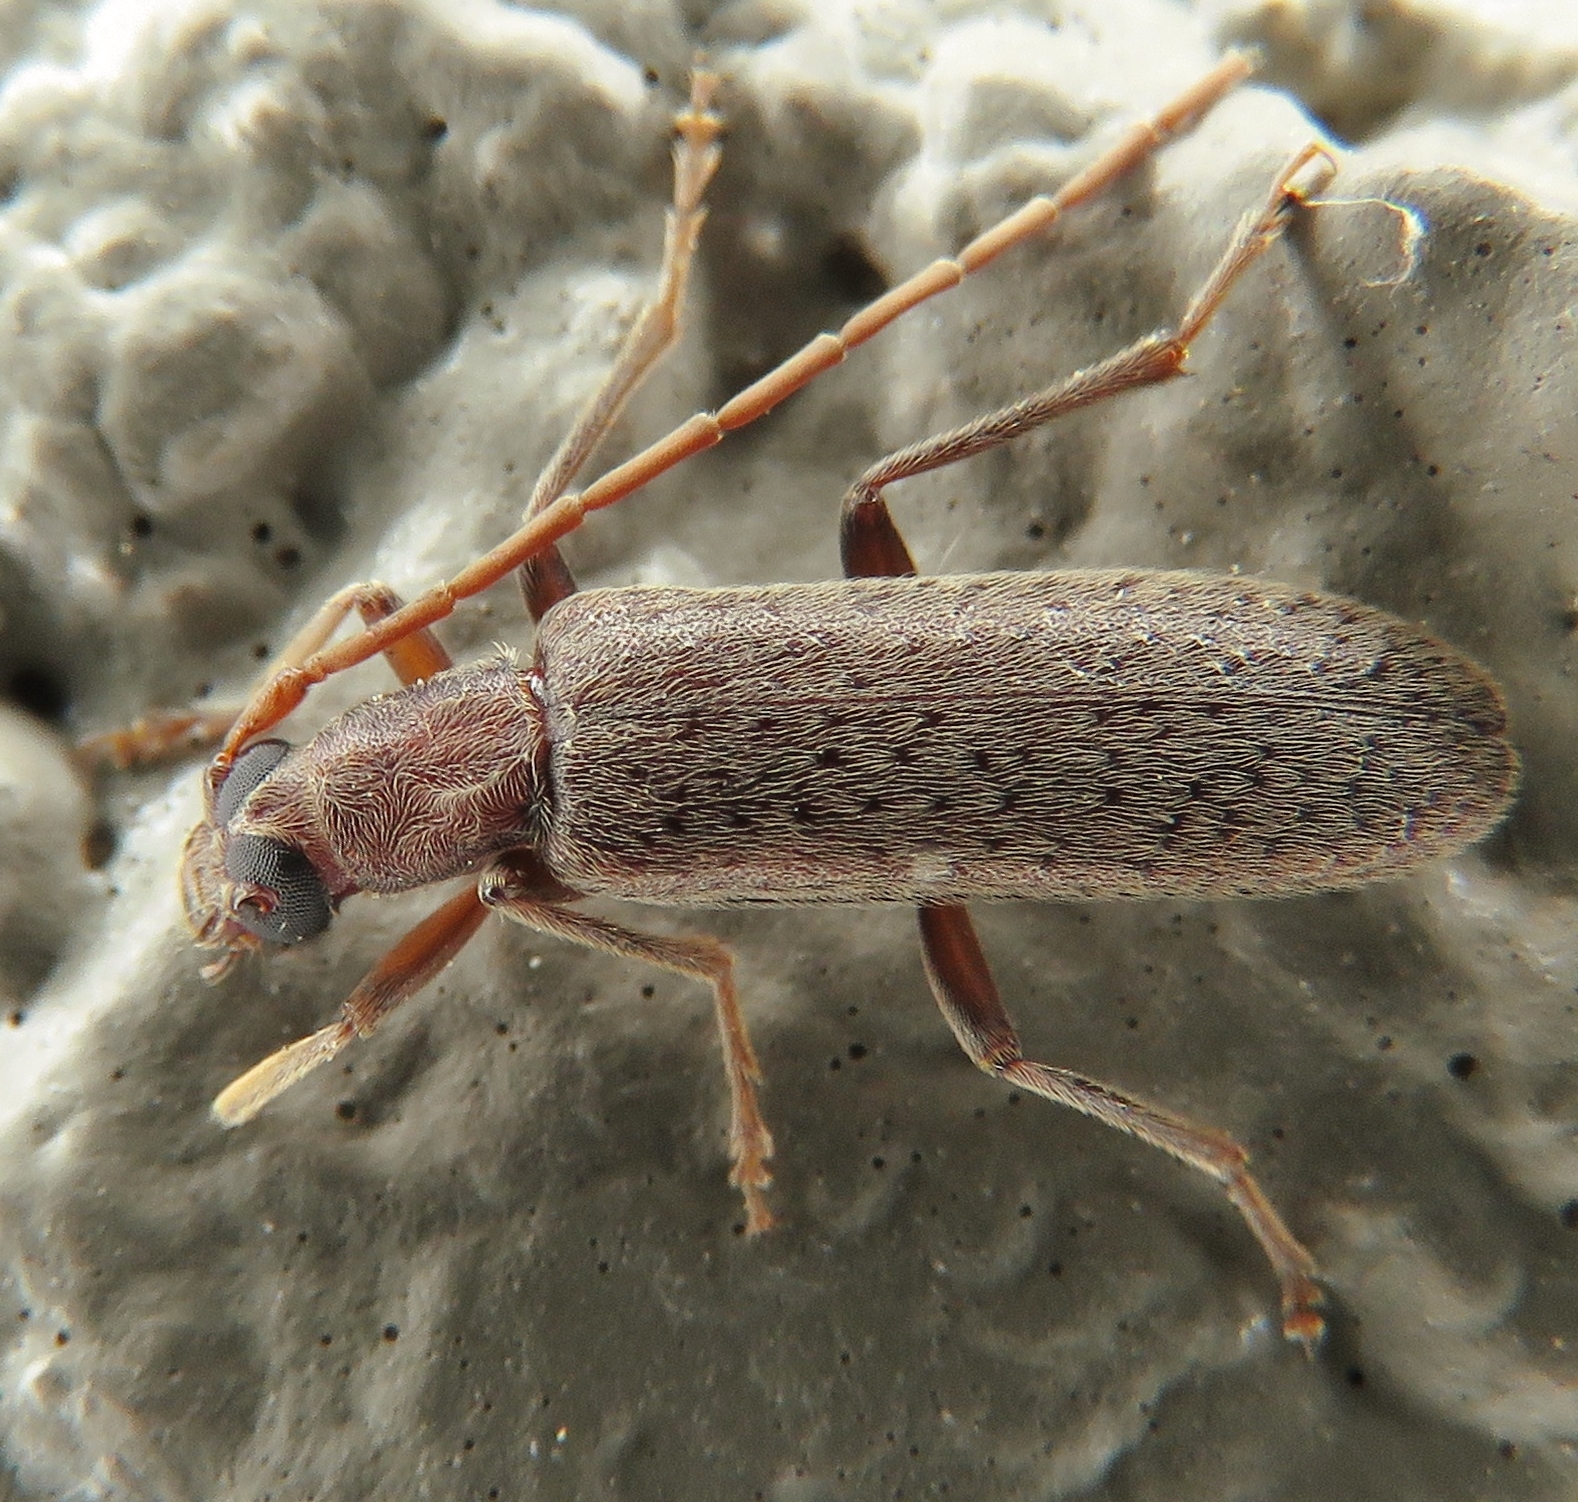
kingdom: Animalia
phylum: Arthropoda
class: Insecta
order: Coleoptera
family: Oedemeridae
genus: Sparedrus
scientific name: Sparedrus aspersus
